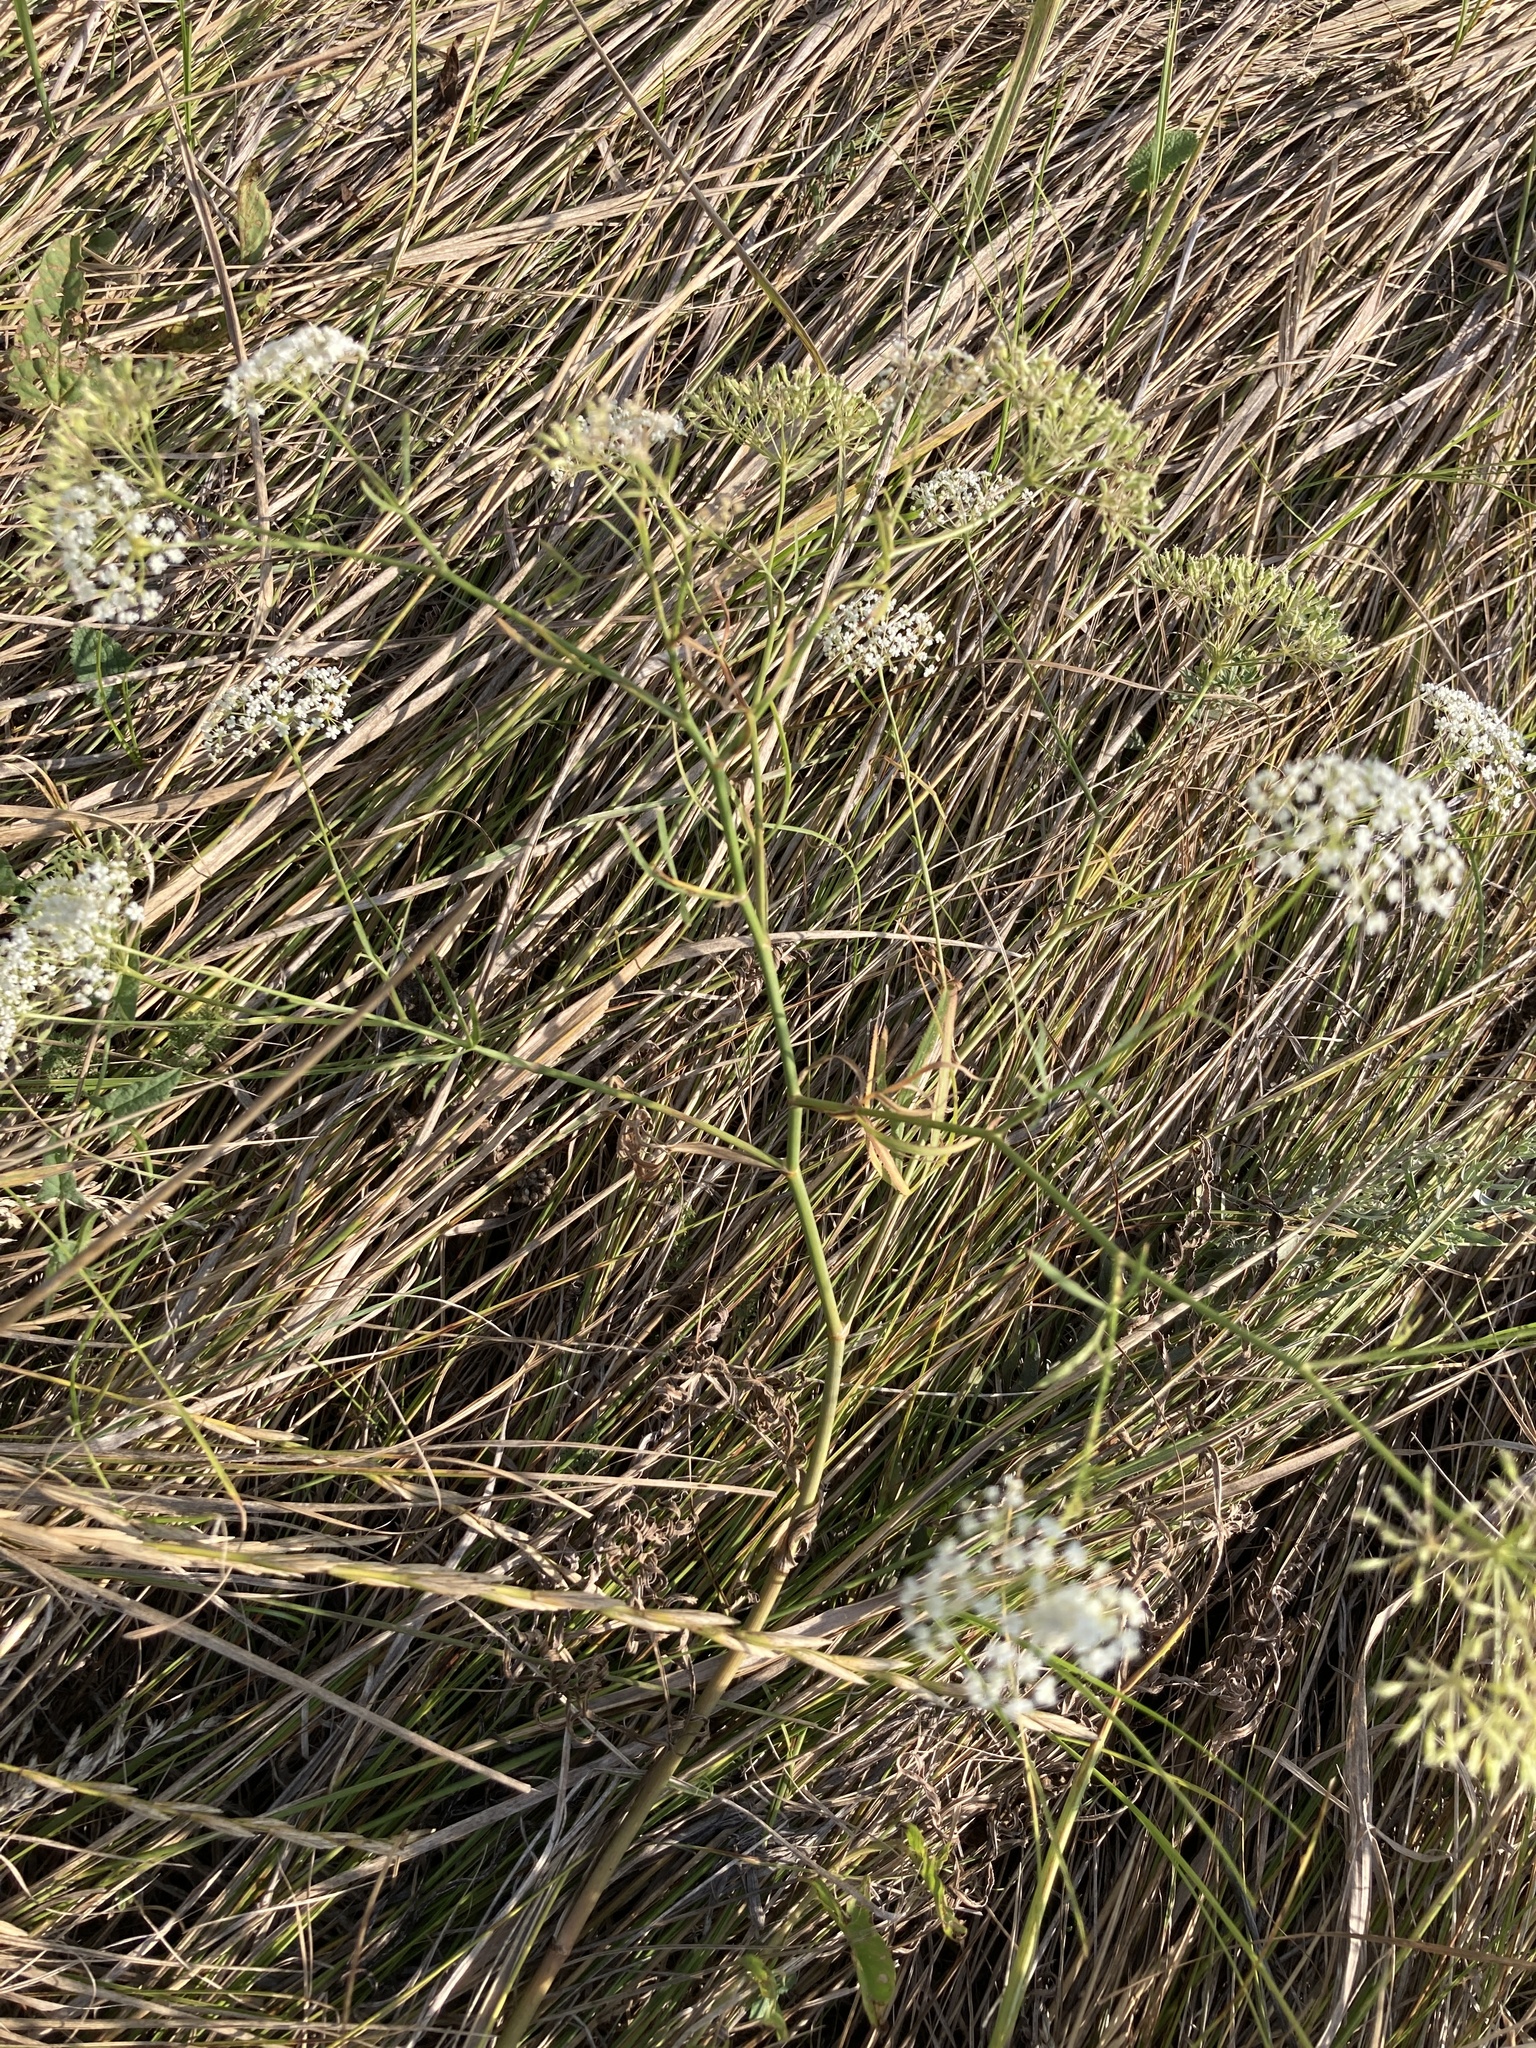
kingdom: Plantae
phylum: Tracheophyta
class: Magnoliopsida
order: Apiales
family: Apiaceae
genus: Falcaria
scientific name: Falcaria vulgaris
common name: Longleaf
